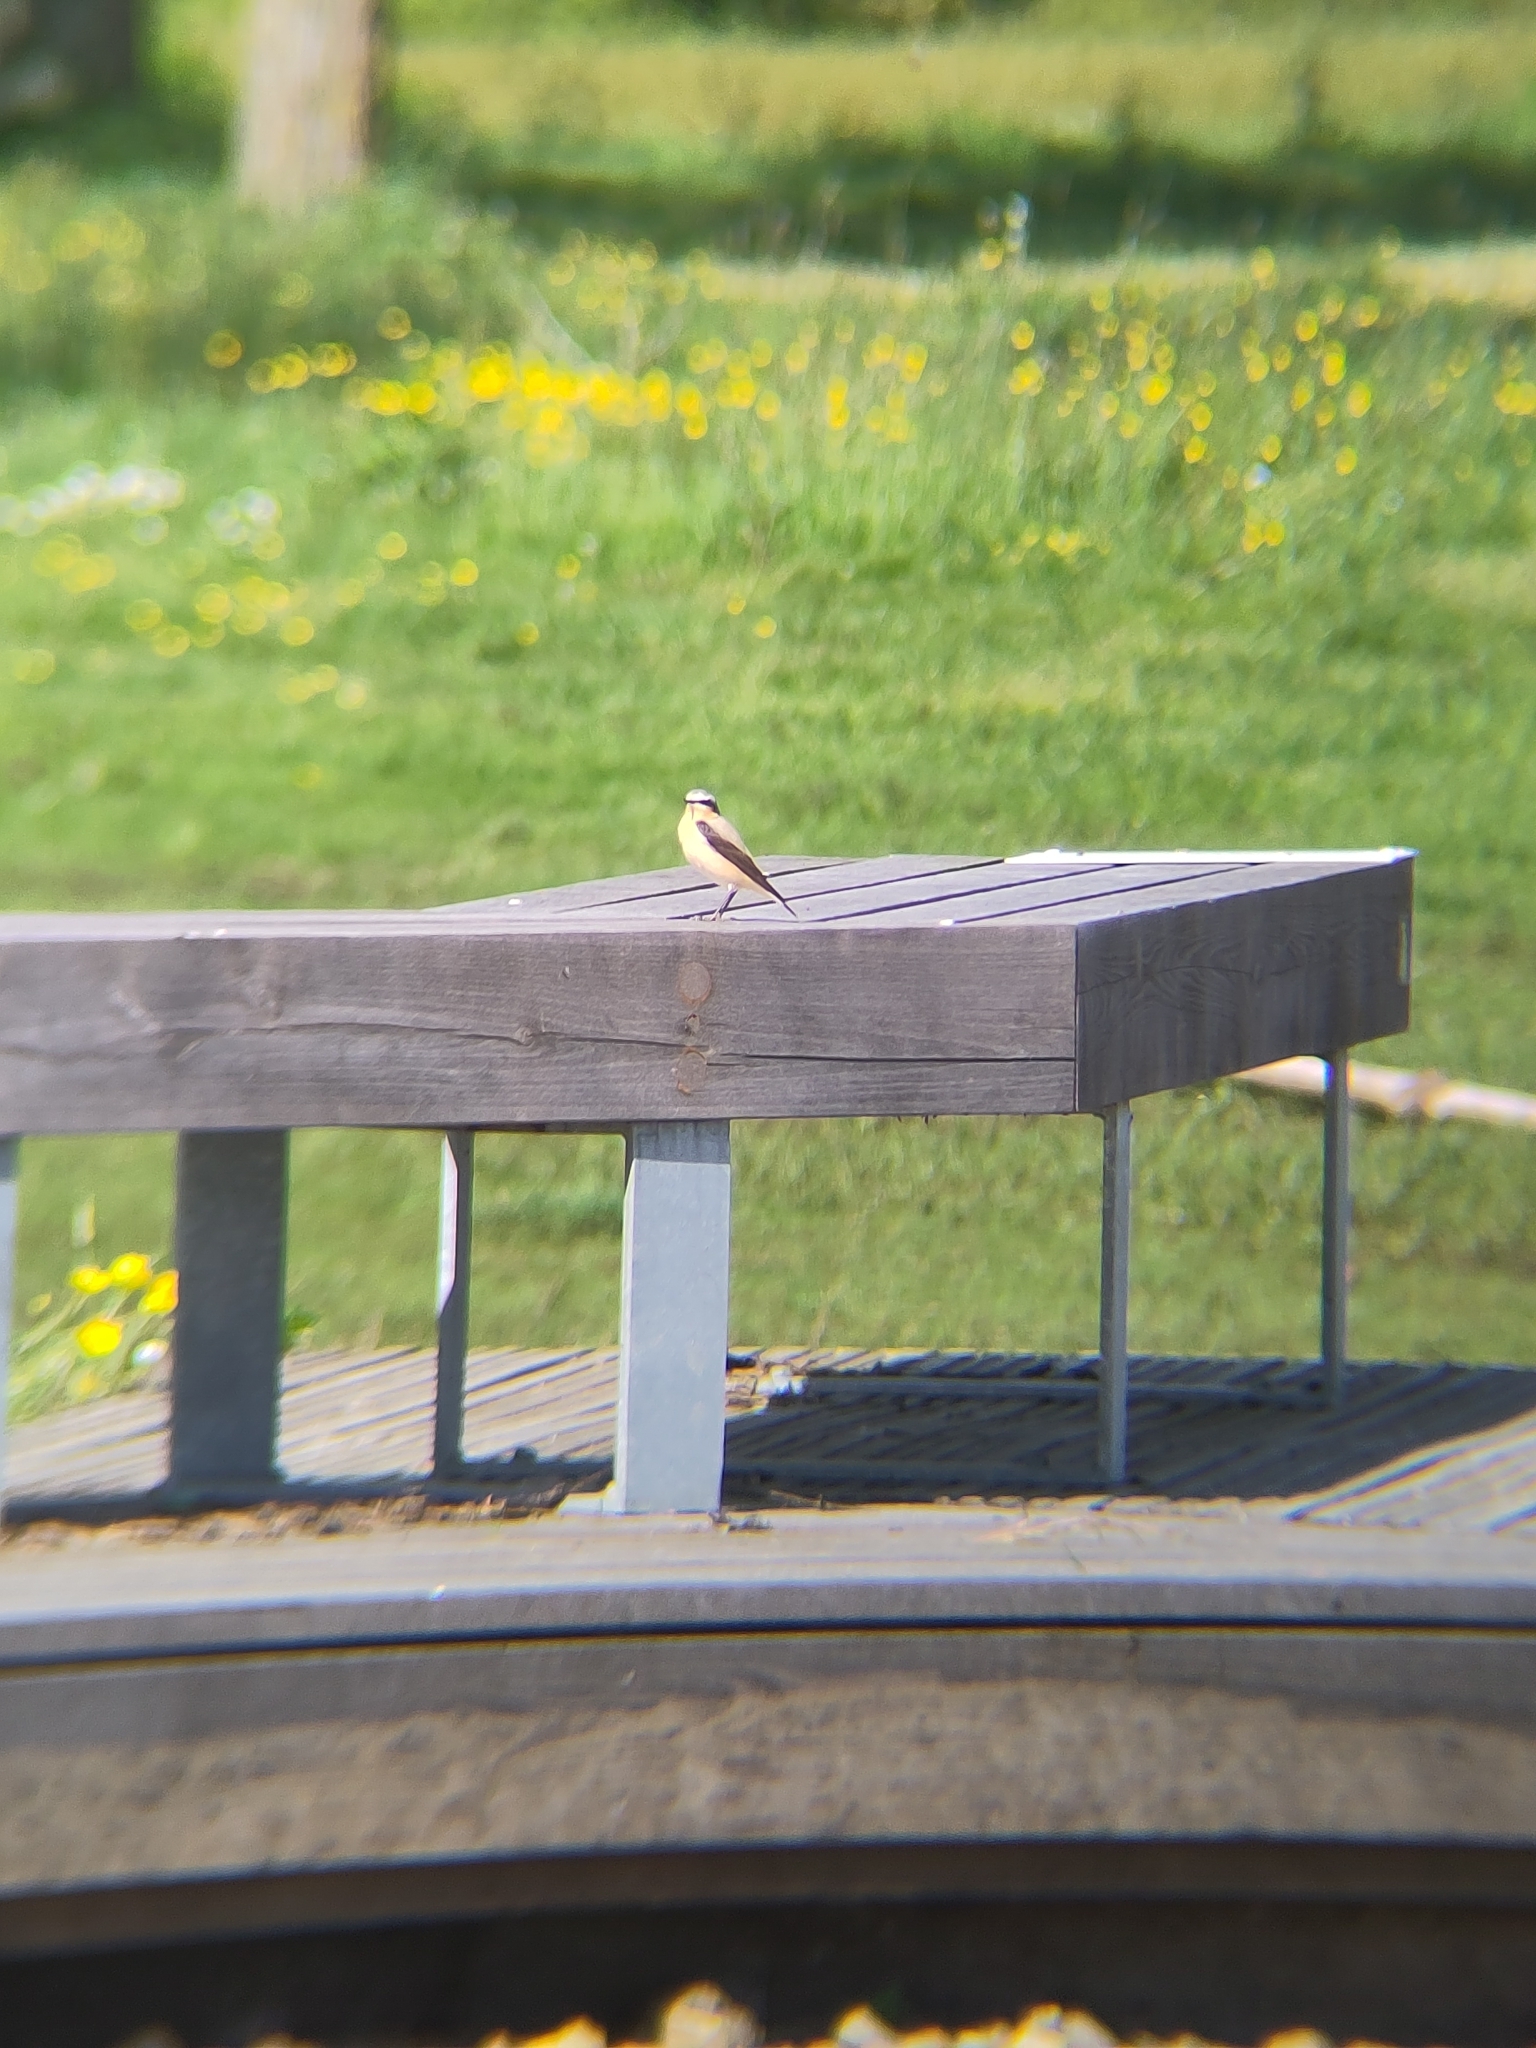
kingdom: Animalia
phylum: Chordata
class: Aves
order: Passeriformes
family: Muscicapidae
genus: Oenanthe
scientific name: Oenanthe oenanthe
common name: Northern wheatear
